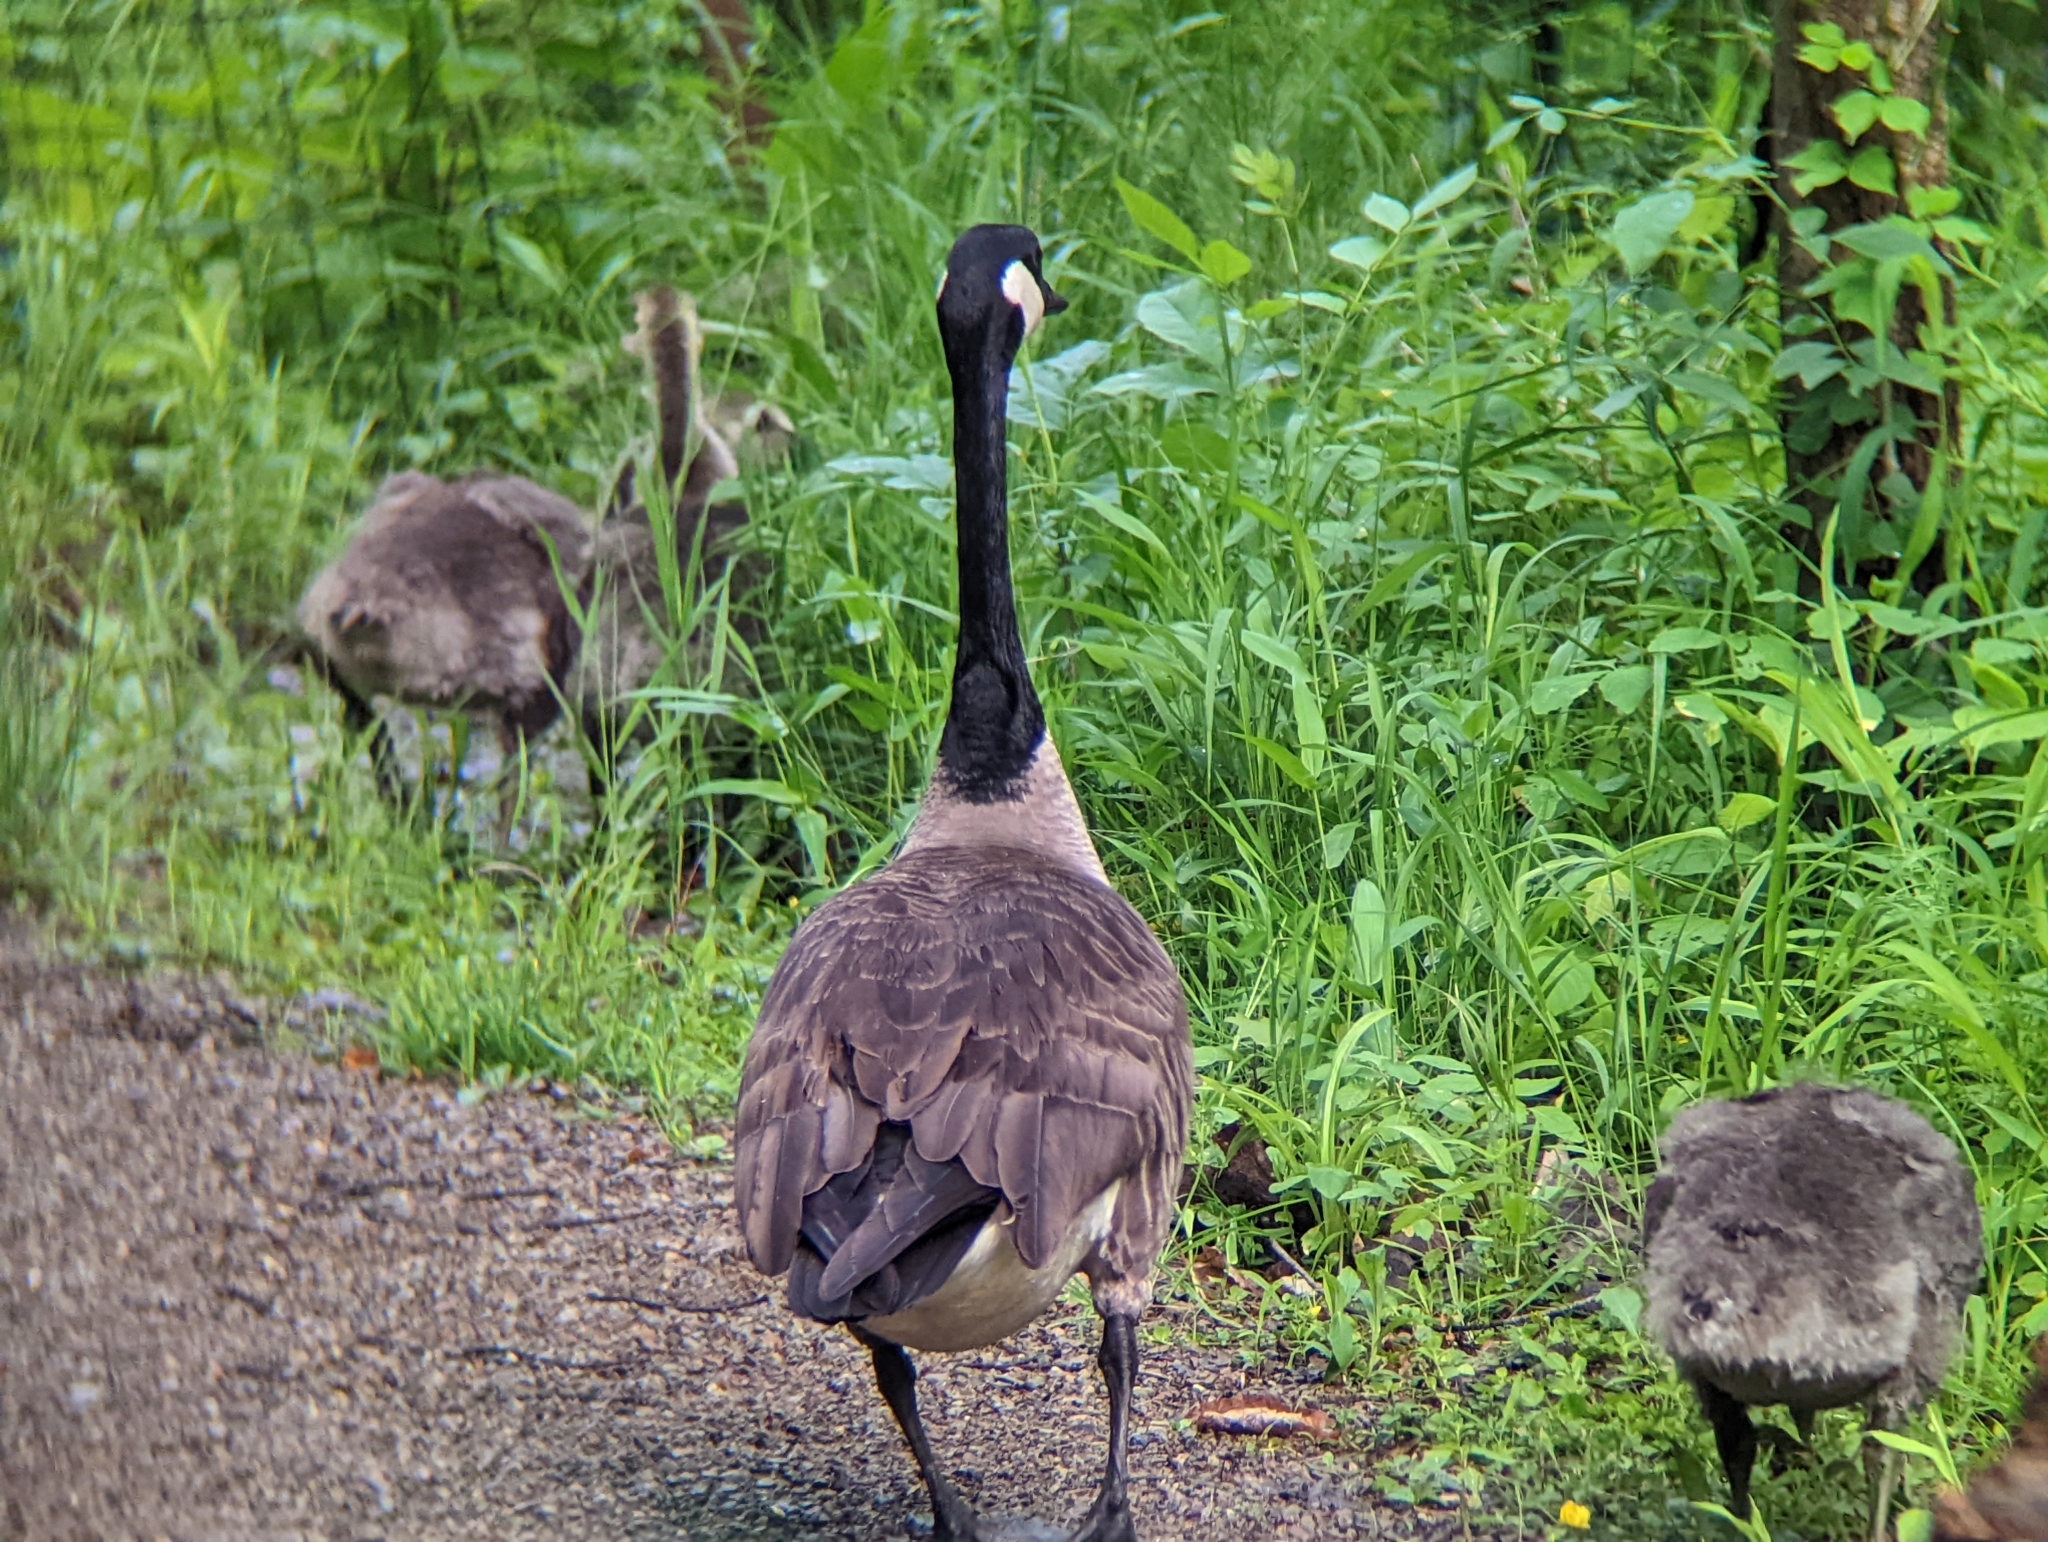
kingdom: Animalia
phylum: Chordata
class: Aves
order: Anseriformes
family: Anatidae
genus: Branta
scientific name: Branta canadensis
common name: Canada goose
